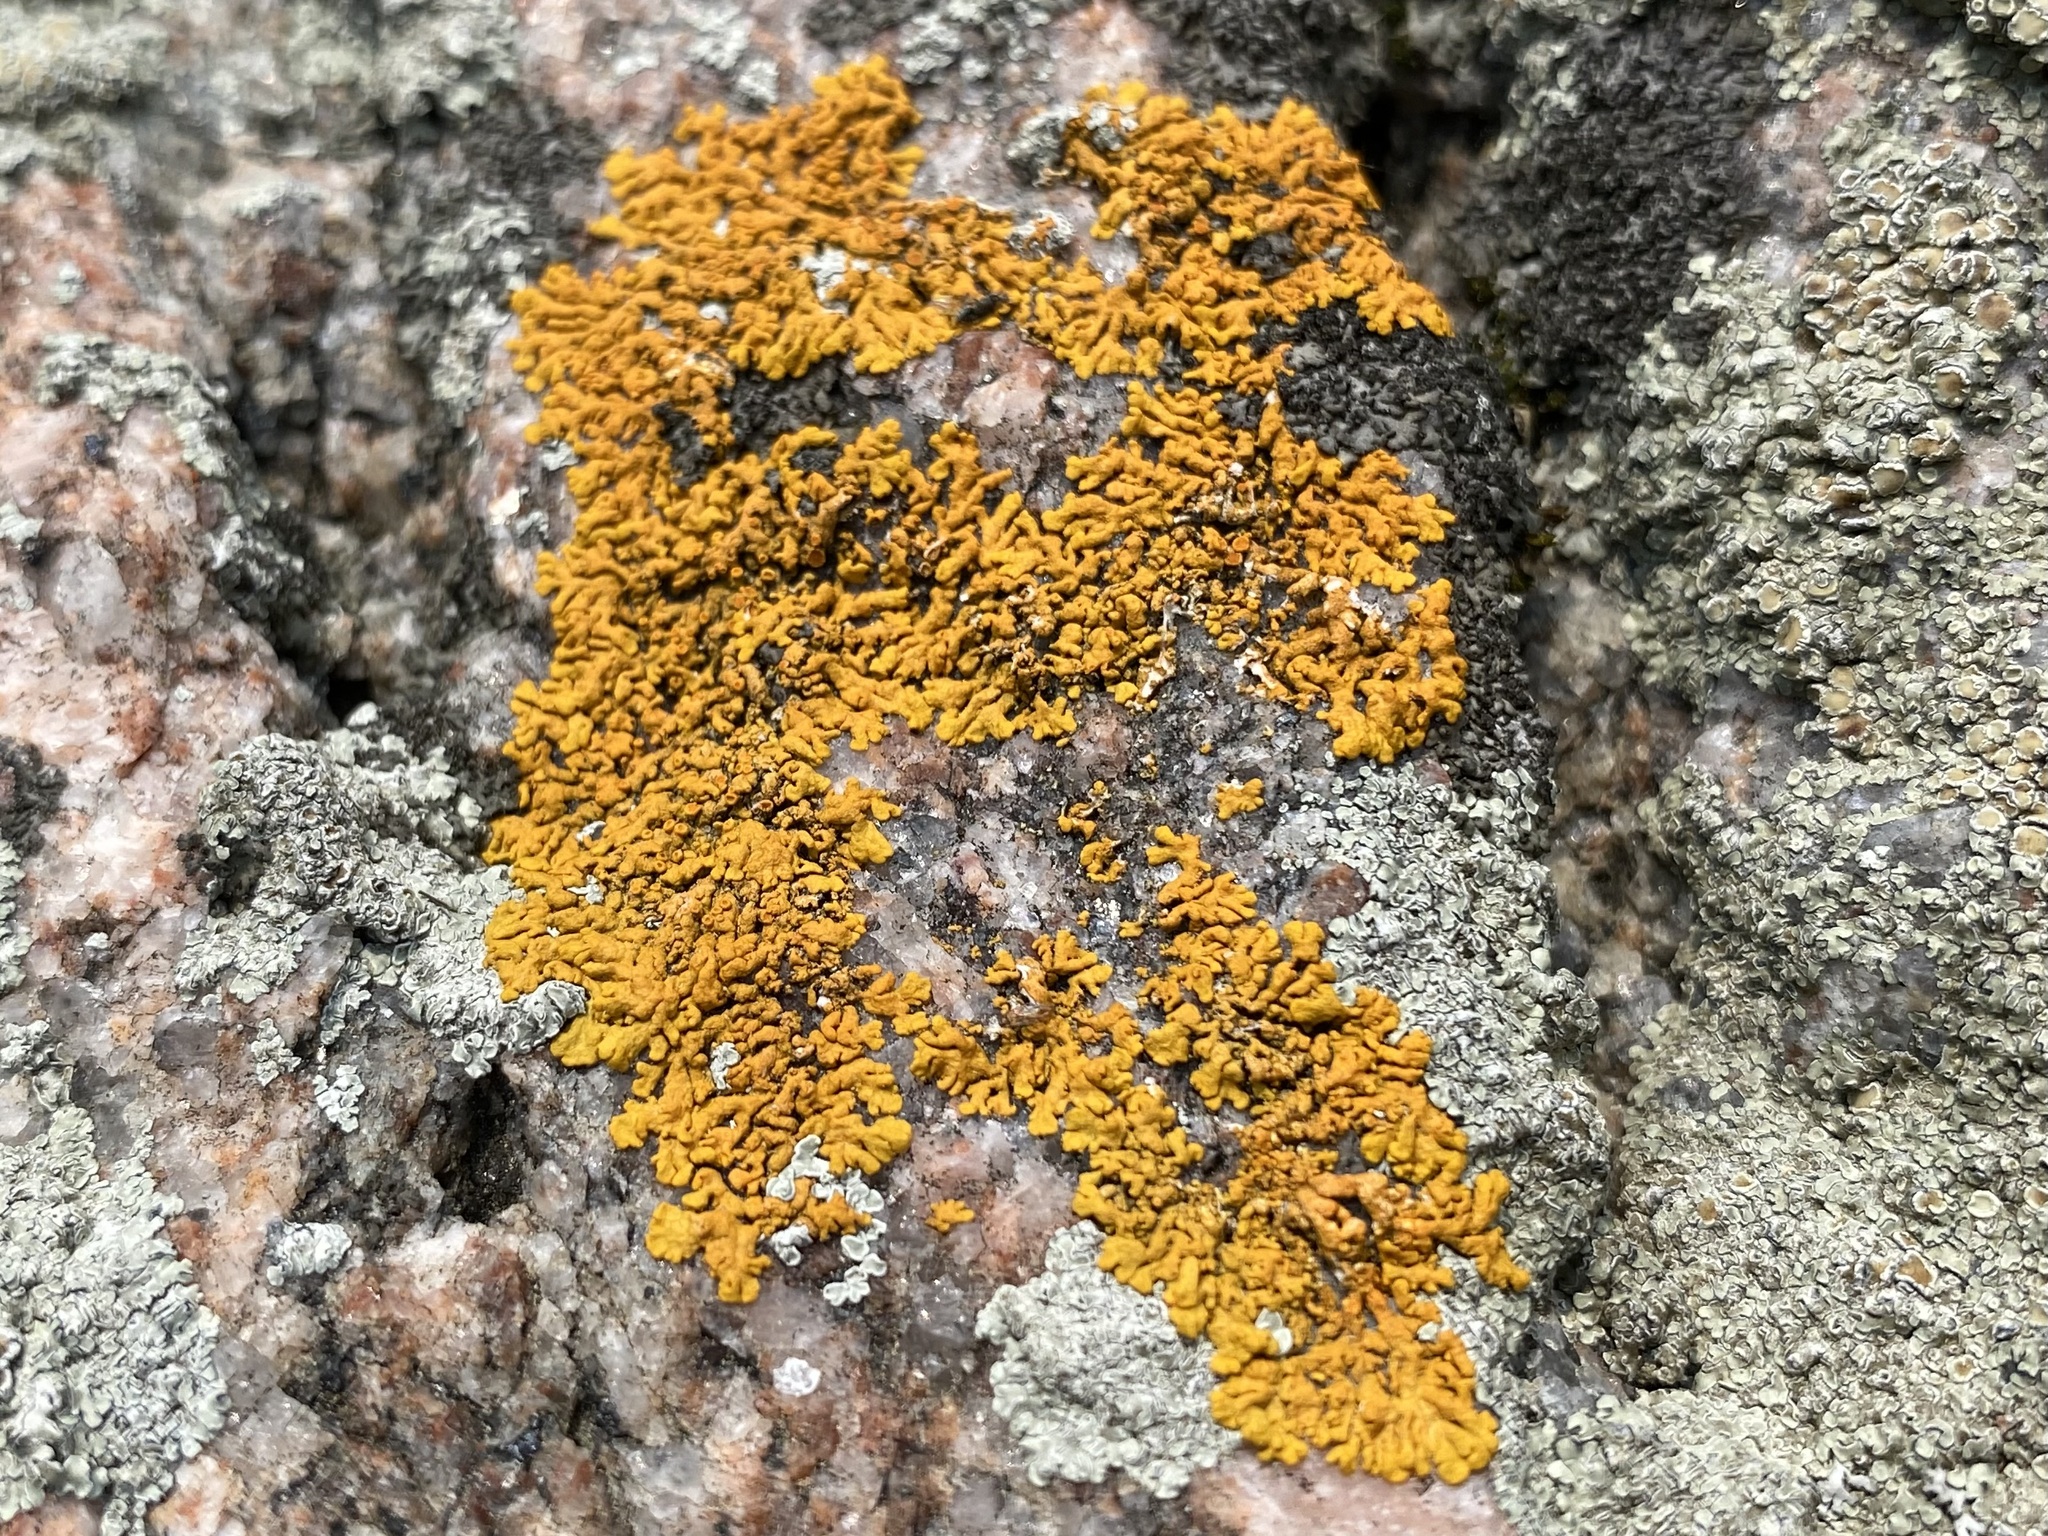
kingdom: Fungi
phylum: Ascomycota
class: Lecanoromycetes
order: Teloschistales
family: Teloschistaceae
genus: Xanthoria
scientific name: Xanthoria elegans
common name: Elegant sunburst lichen
